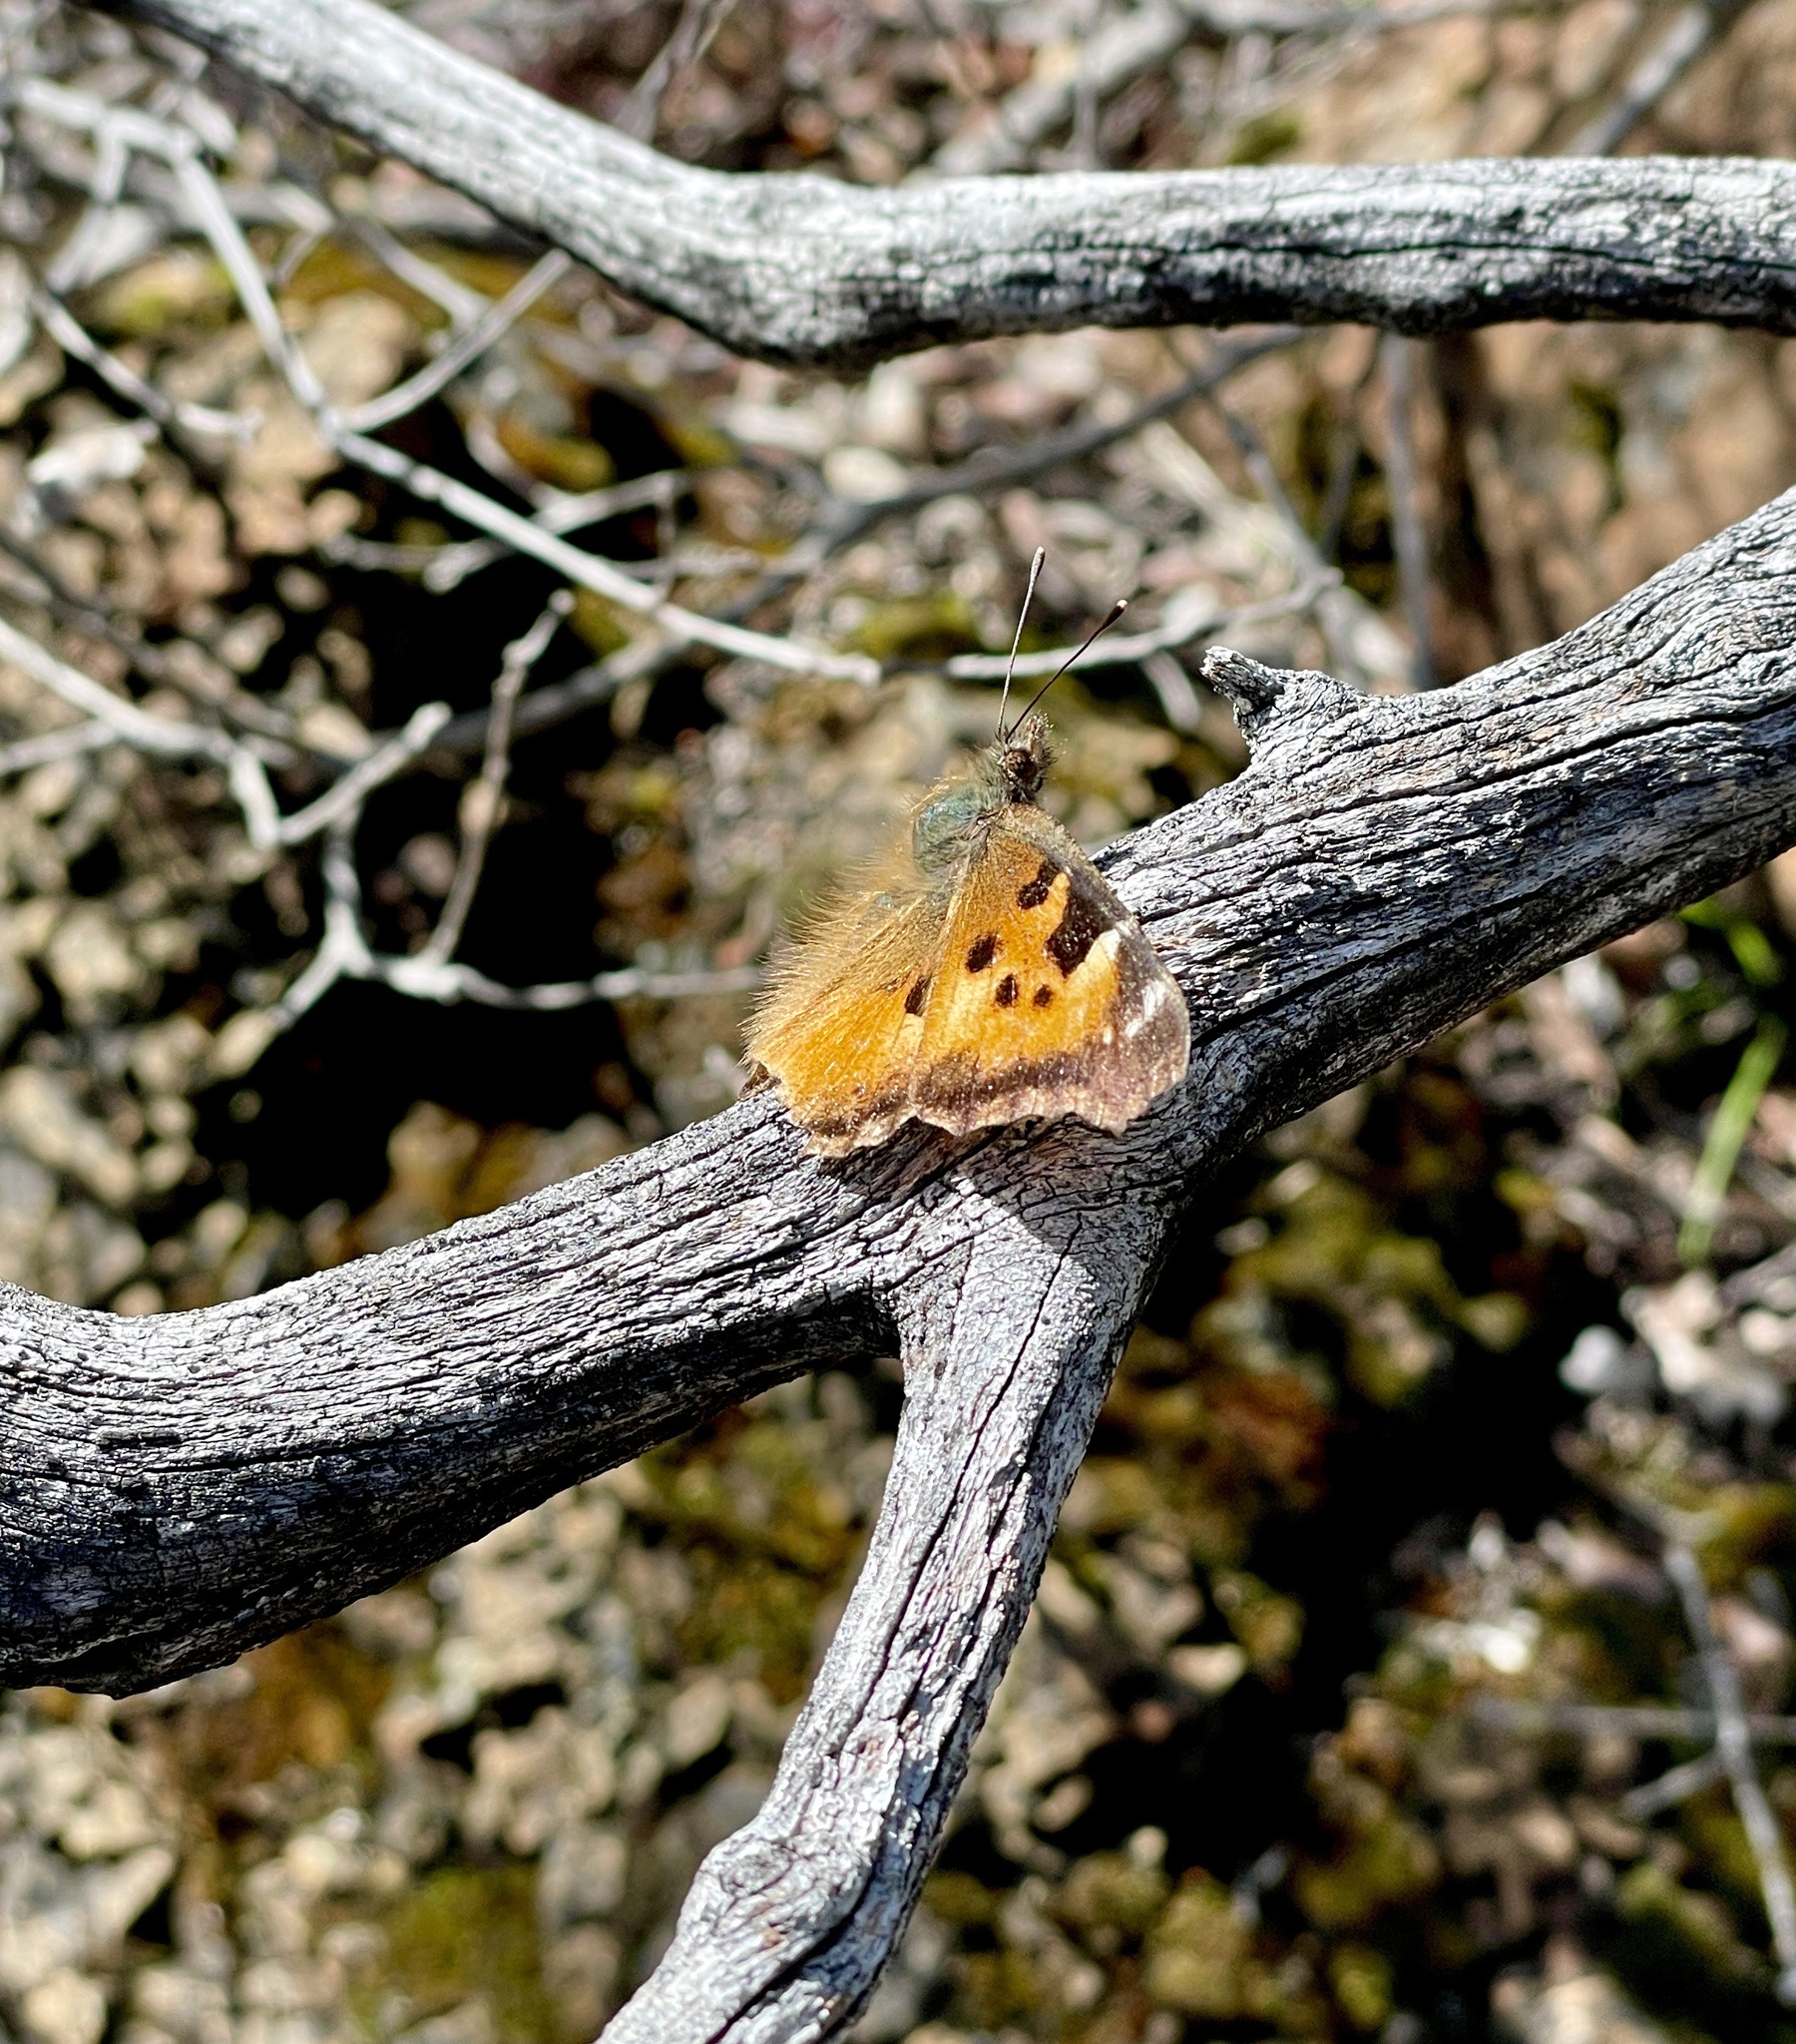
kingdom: Animalia
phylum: Arthropoda
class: Insecta
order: Lepidoptera
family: Nymphalidae
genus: Nymphalis
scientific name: Nymphalis californica
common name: California tortoiseshell
